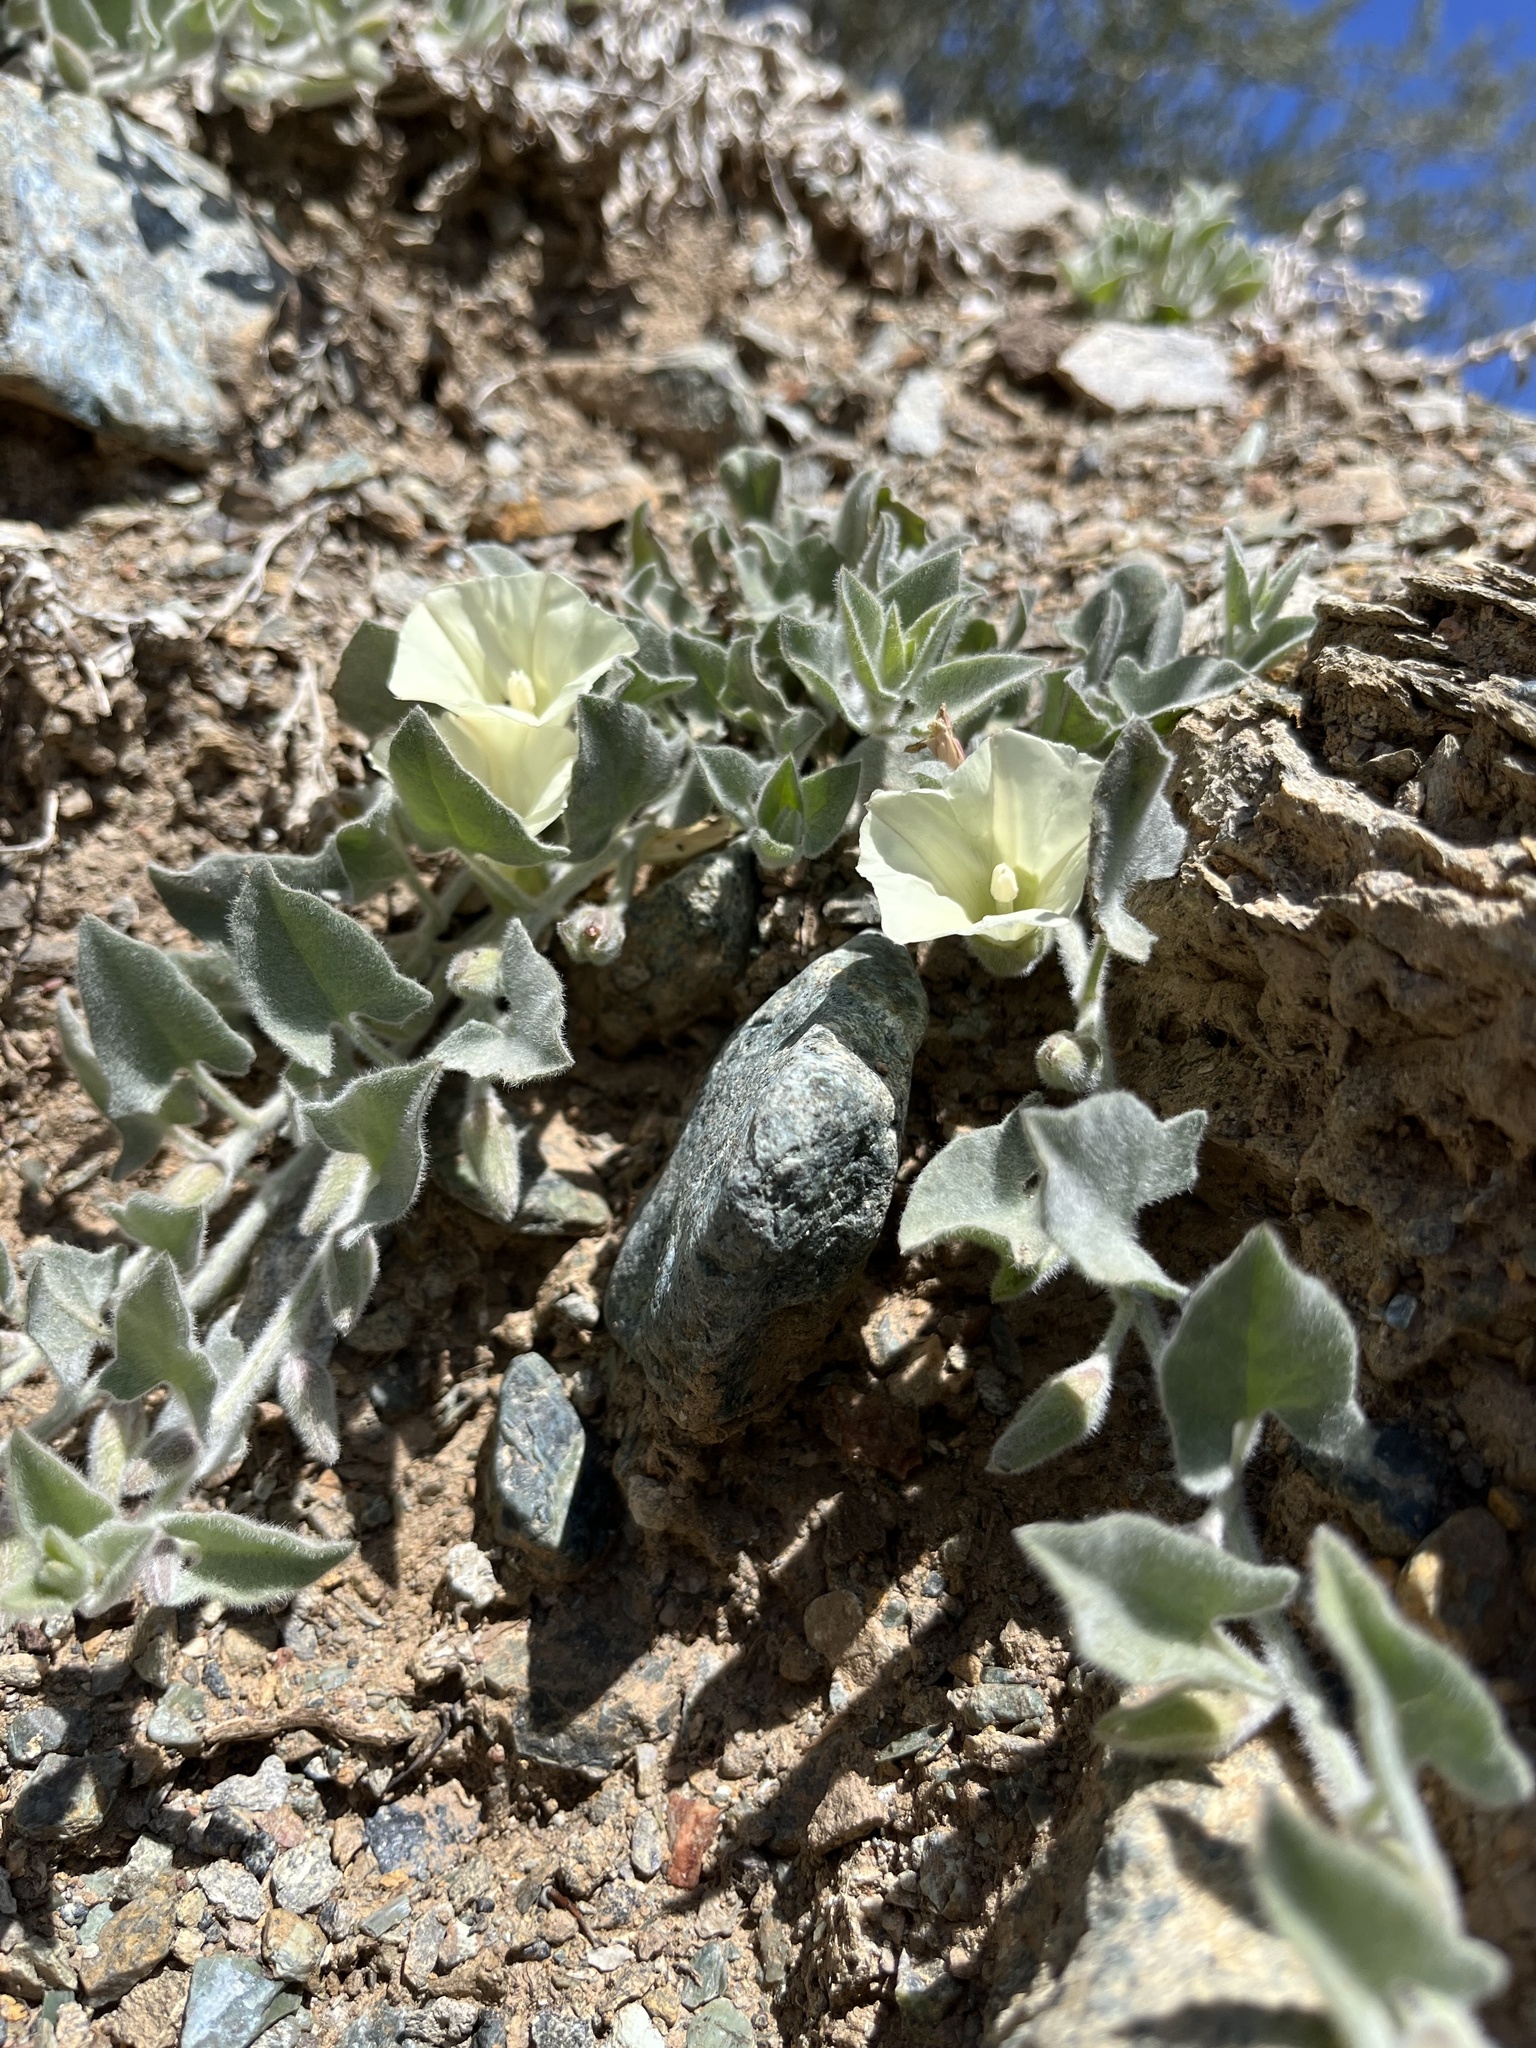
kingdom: Plantae
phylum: Tracheophyta
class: Magnoliopsida
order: Solanales
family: Convolvulaceae
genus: Calystegia
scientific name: Calystegia malacophylla
